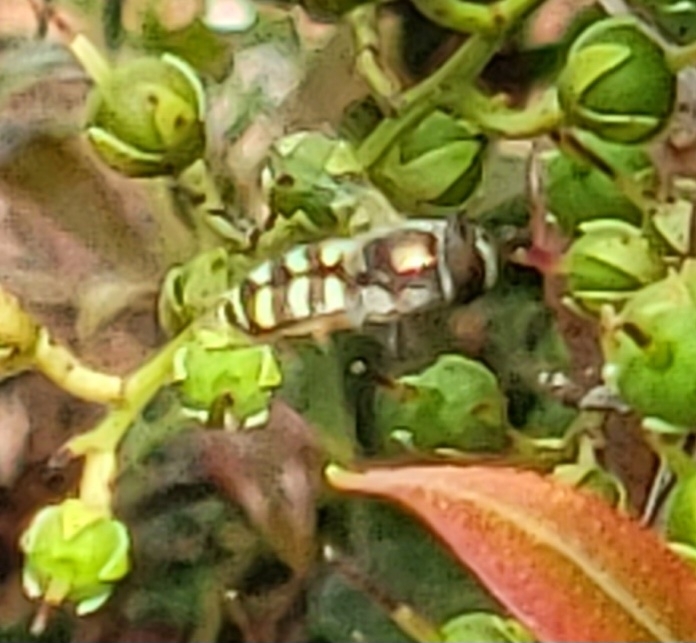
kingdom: Animalia
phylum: Arthropoda
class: Insecta
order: Diptera
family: Syrphidae
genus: Eupeodes
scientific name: Eupeodes volucris
